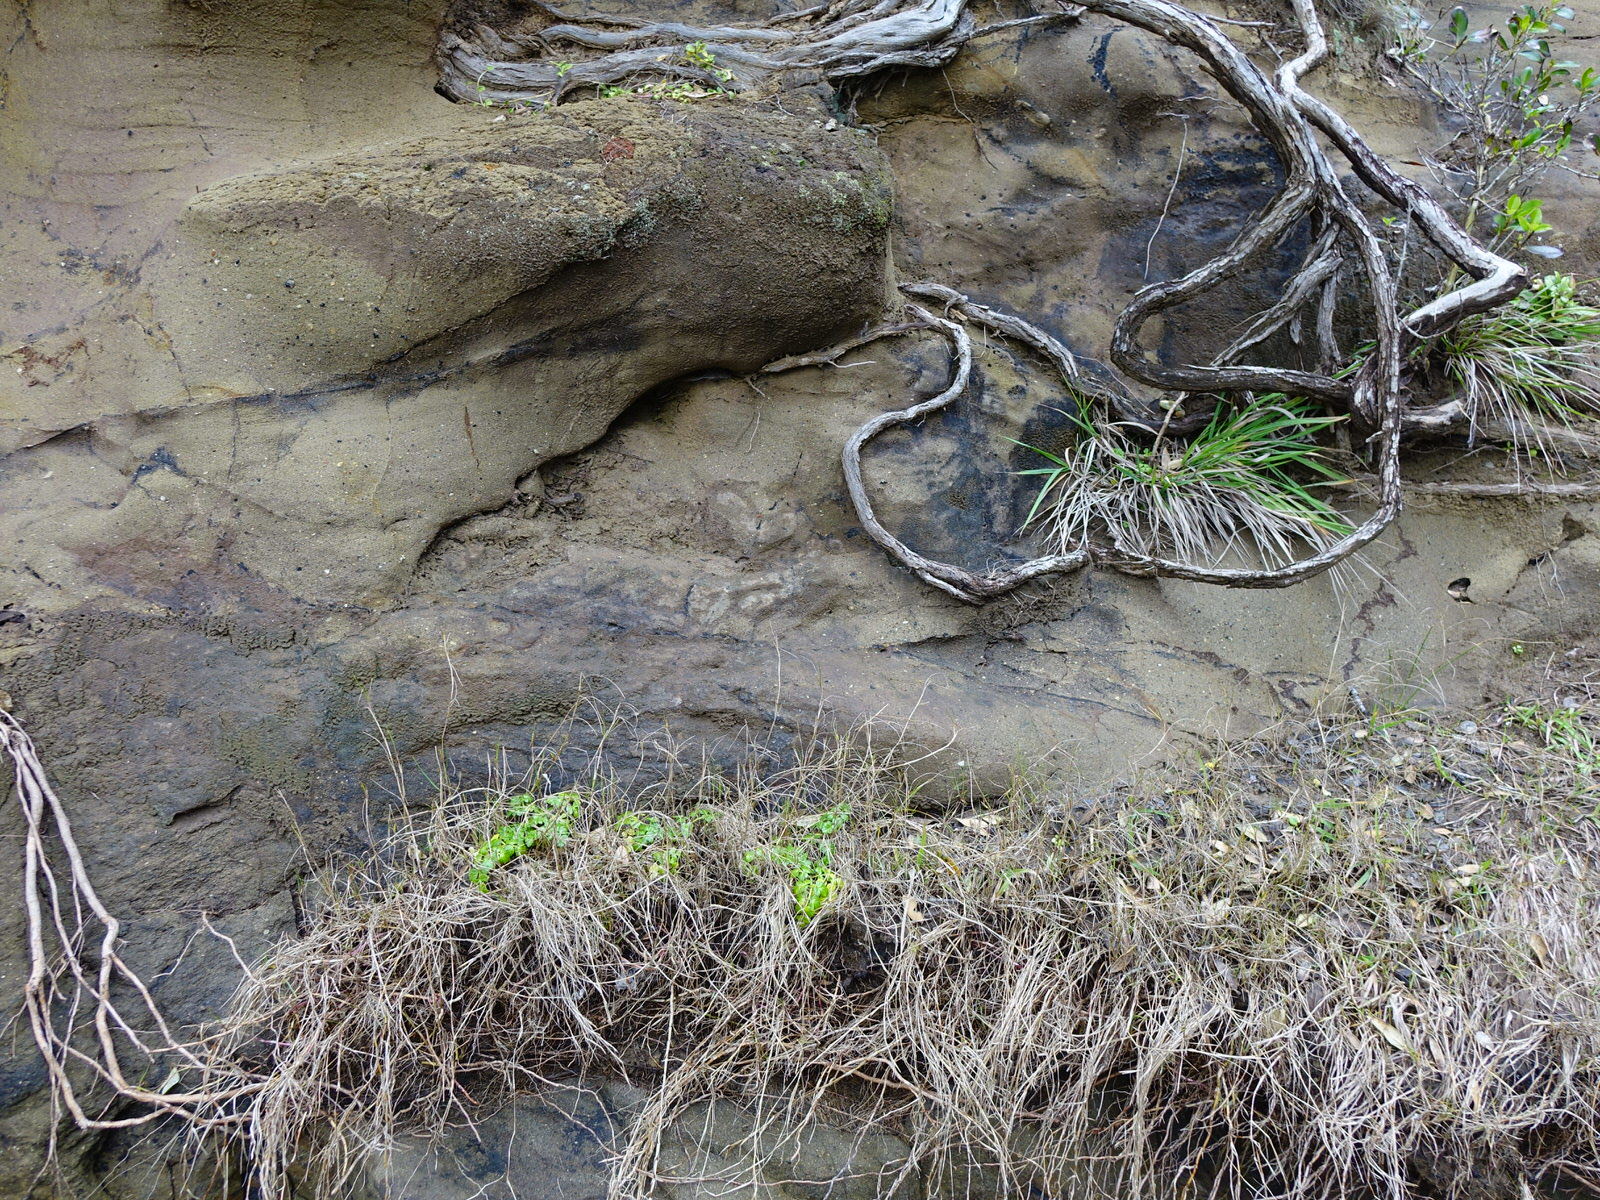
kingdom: Plantae
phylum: Tracheophyta
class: Magnoliopsida
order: Apiales
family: Apiaceae
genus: Apium
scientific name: Apium prostratum
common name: Prostrate marshwort
